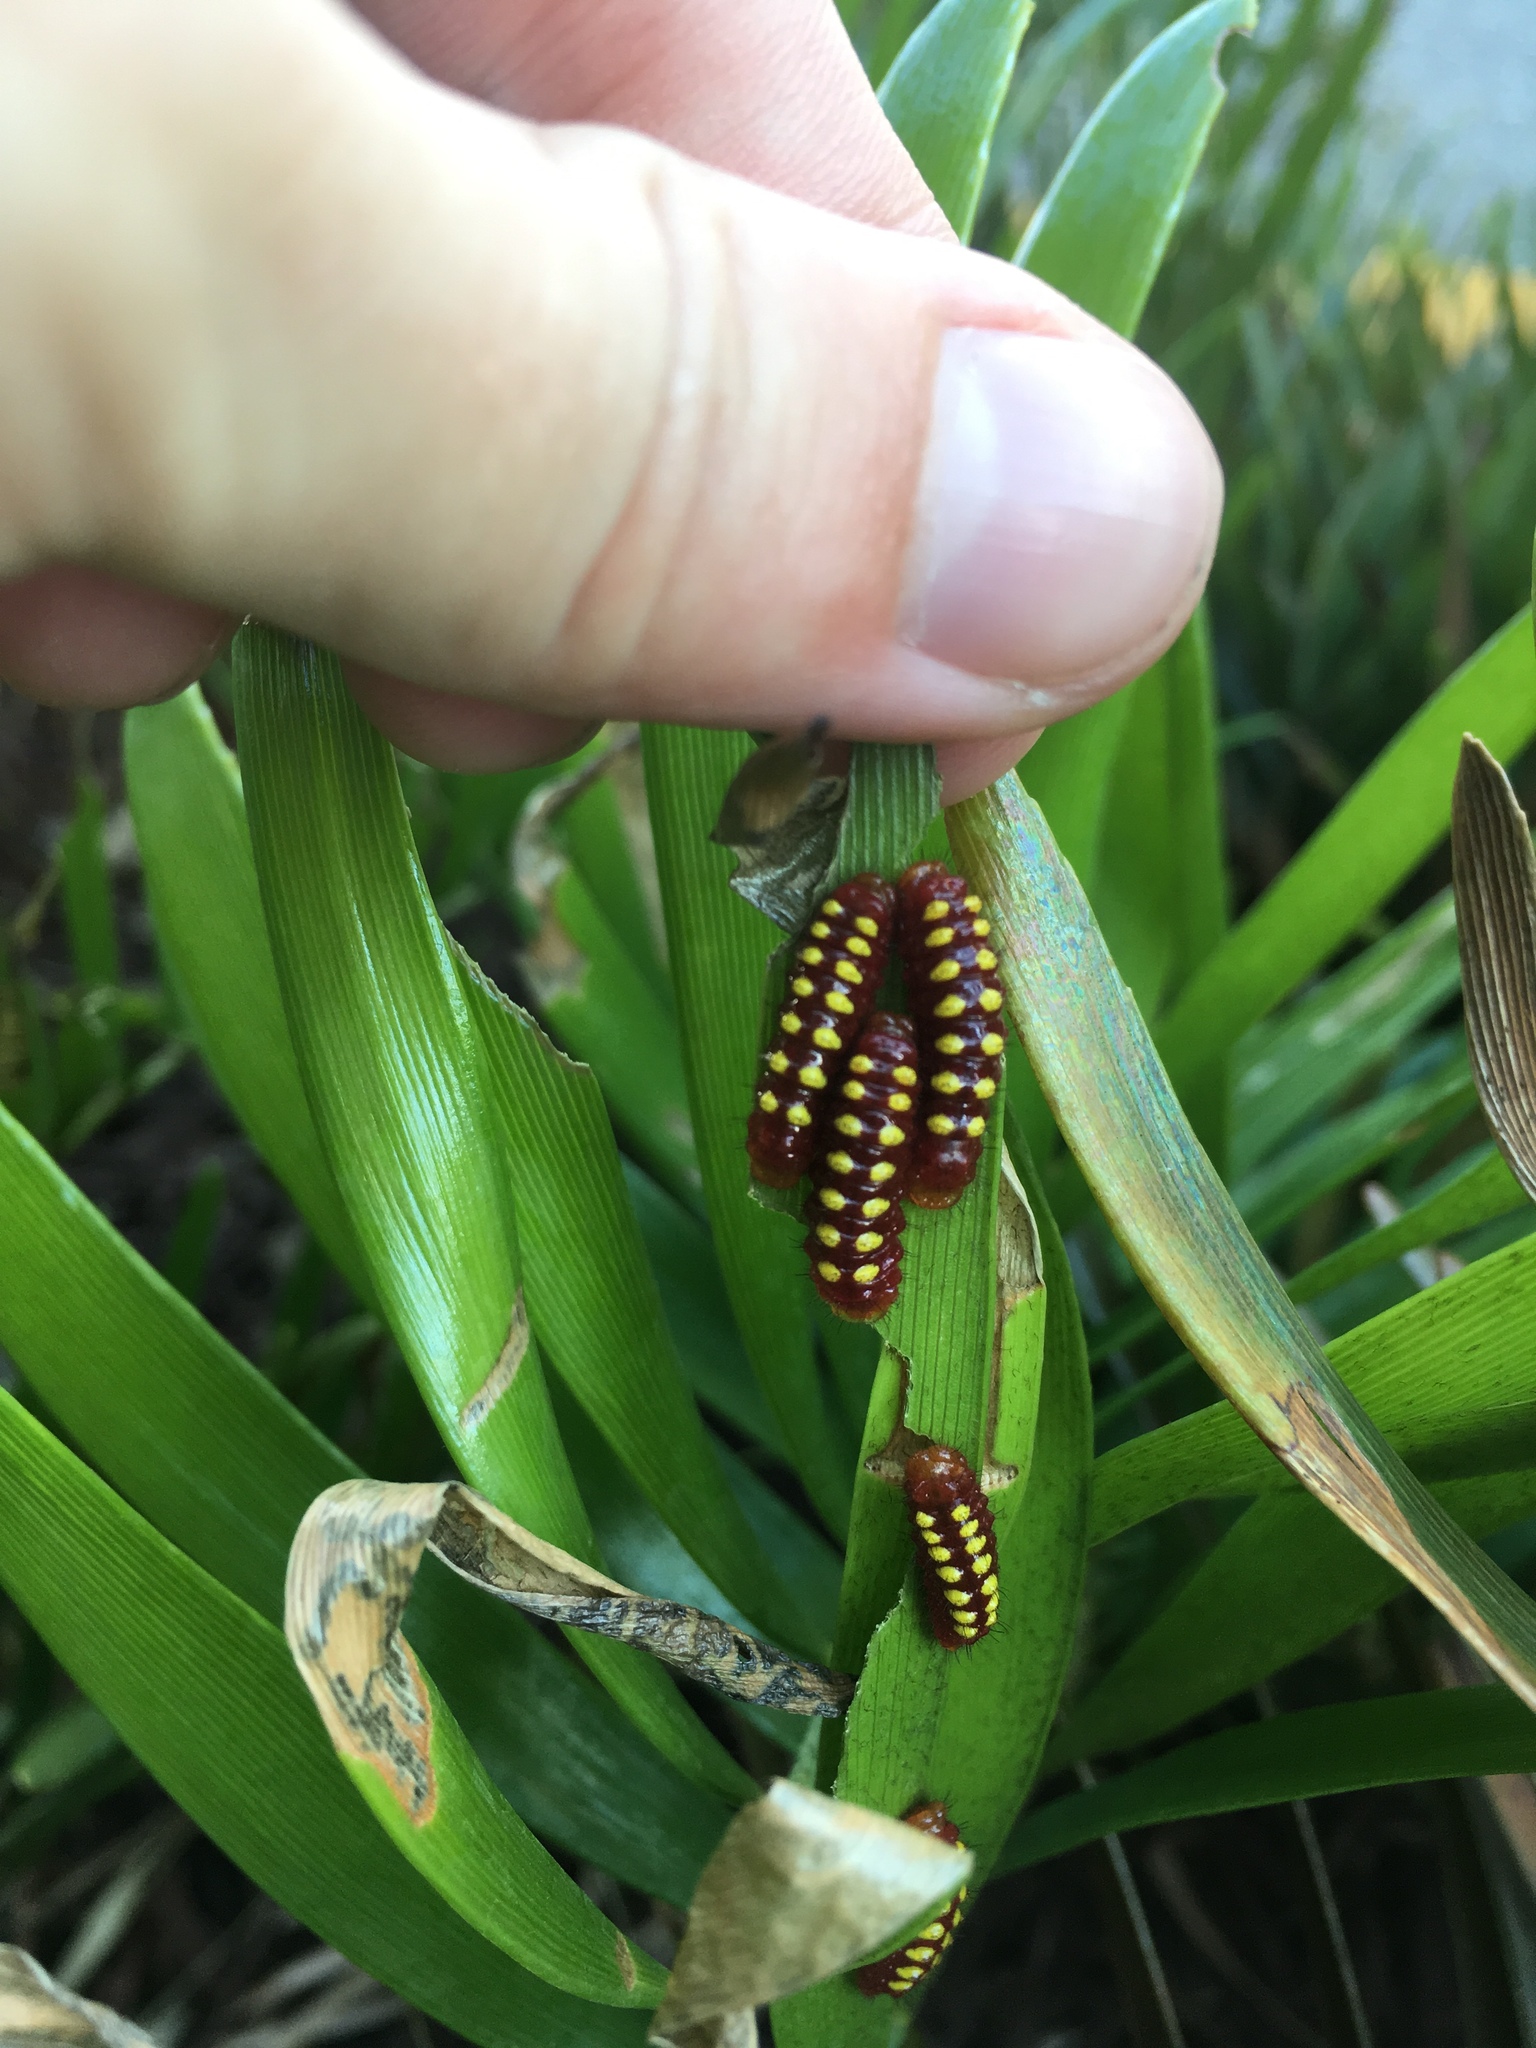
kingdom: Animalia
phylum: Arthropoda
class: Insecta
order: Lepidoptera
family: Lycaenidae
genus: Eumaeus
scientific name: Eumaeus atala
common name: Atala
